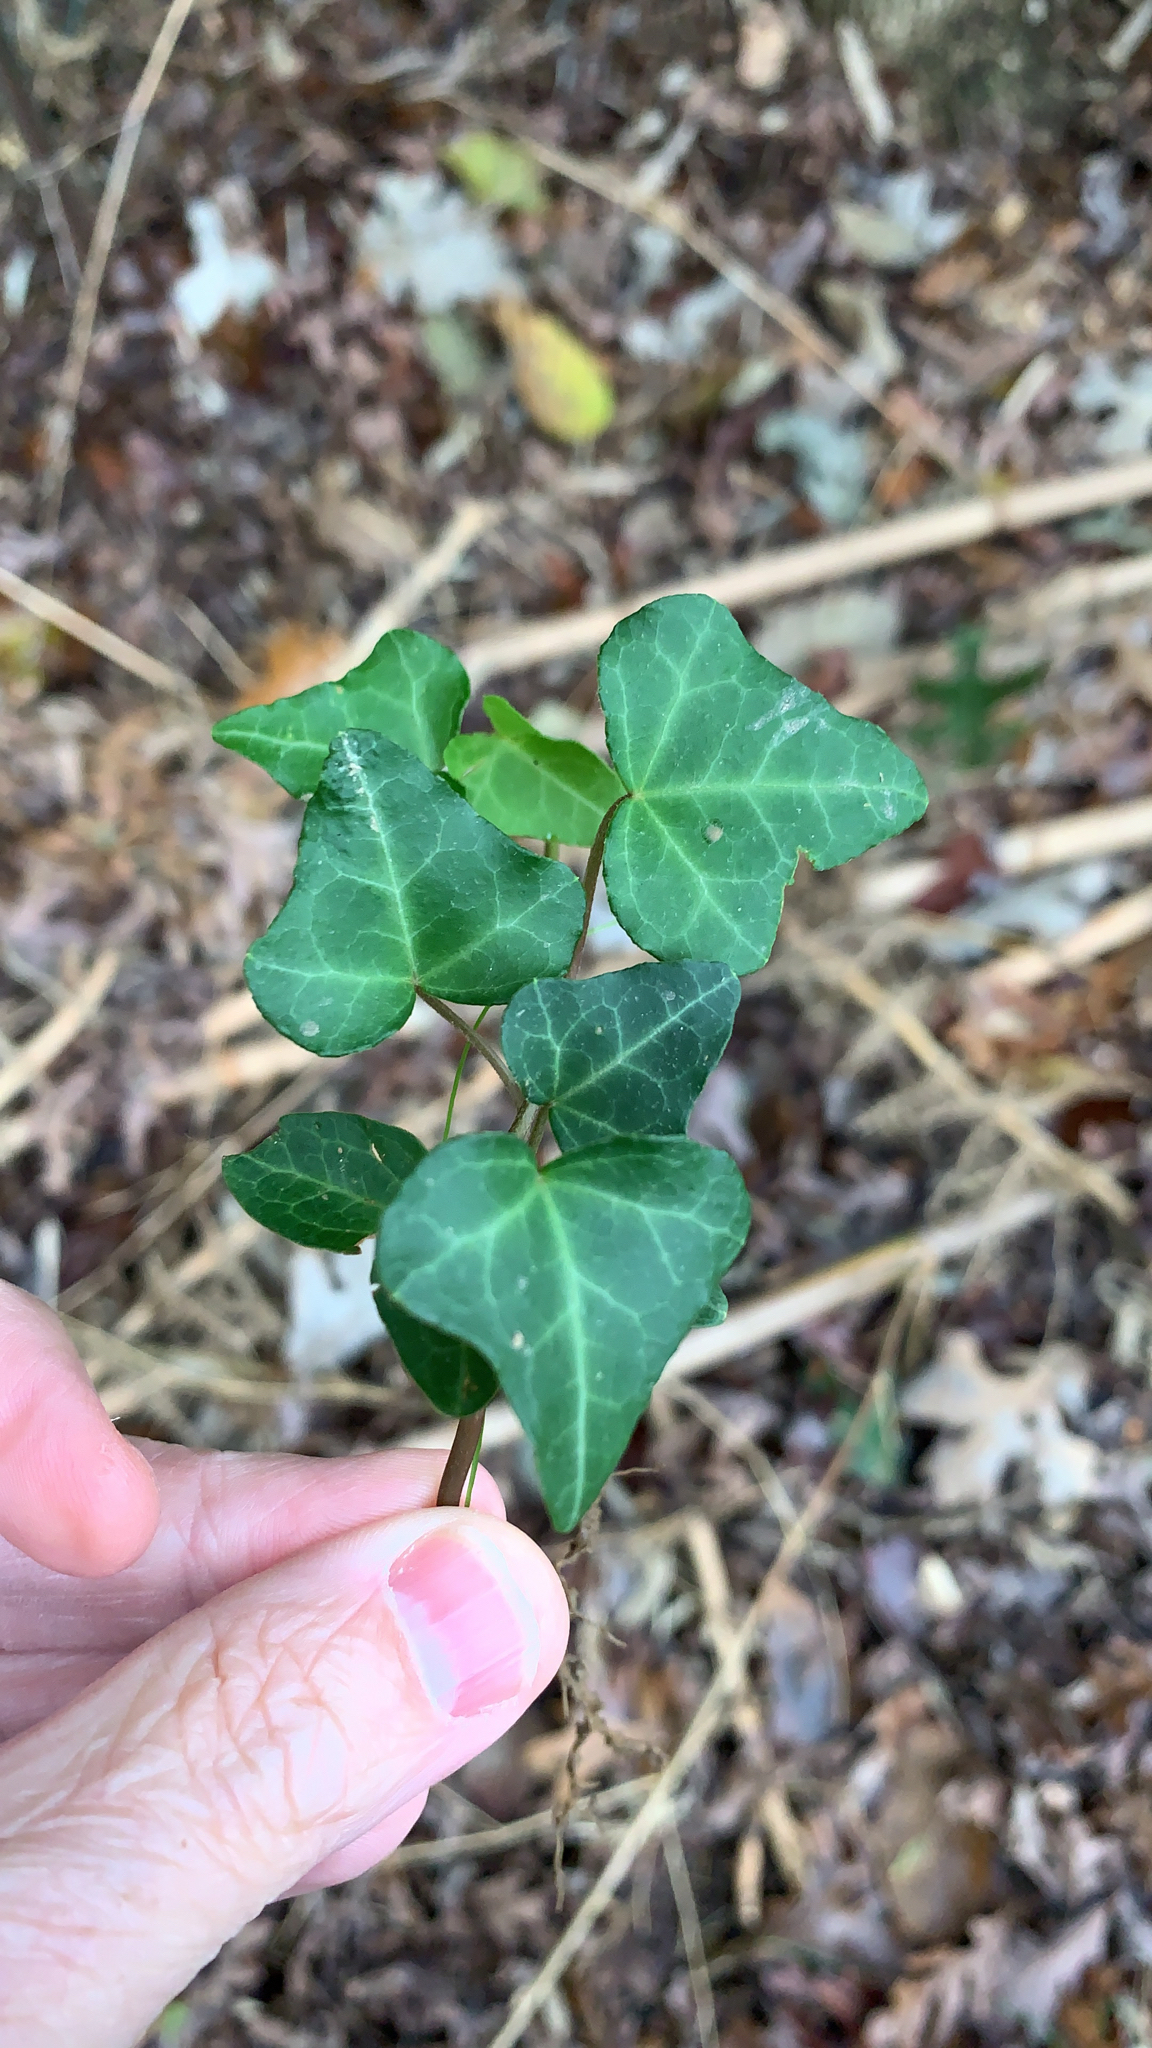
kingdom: Plantae
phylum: Tracheophyta
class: Magnoliopsida
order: Apiales
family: Araliaceae
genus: Hedera
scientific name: Hedera helix
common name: Ivy
